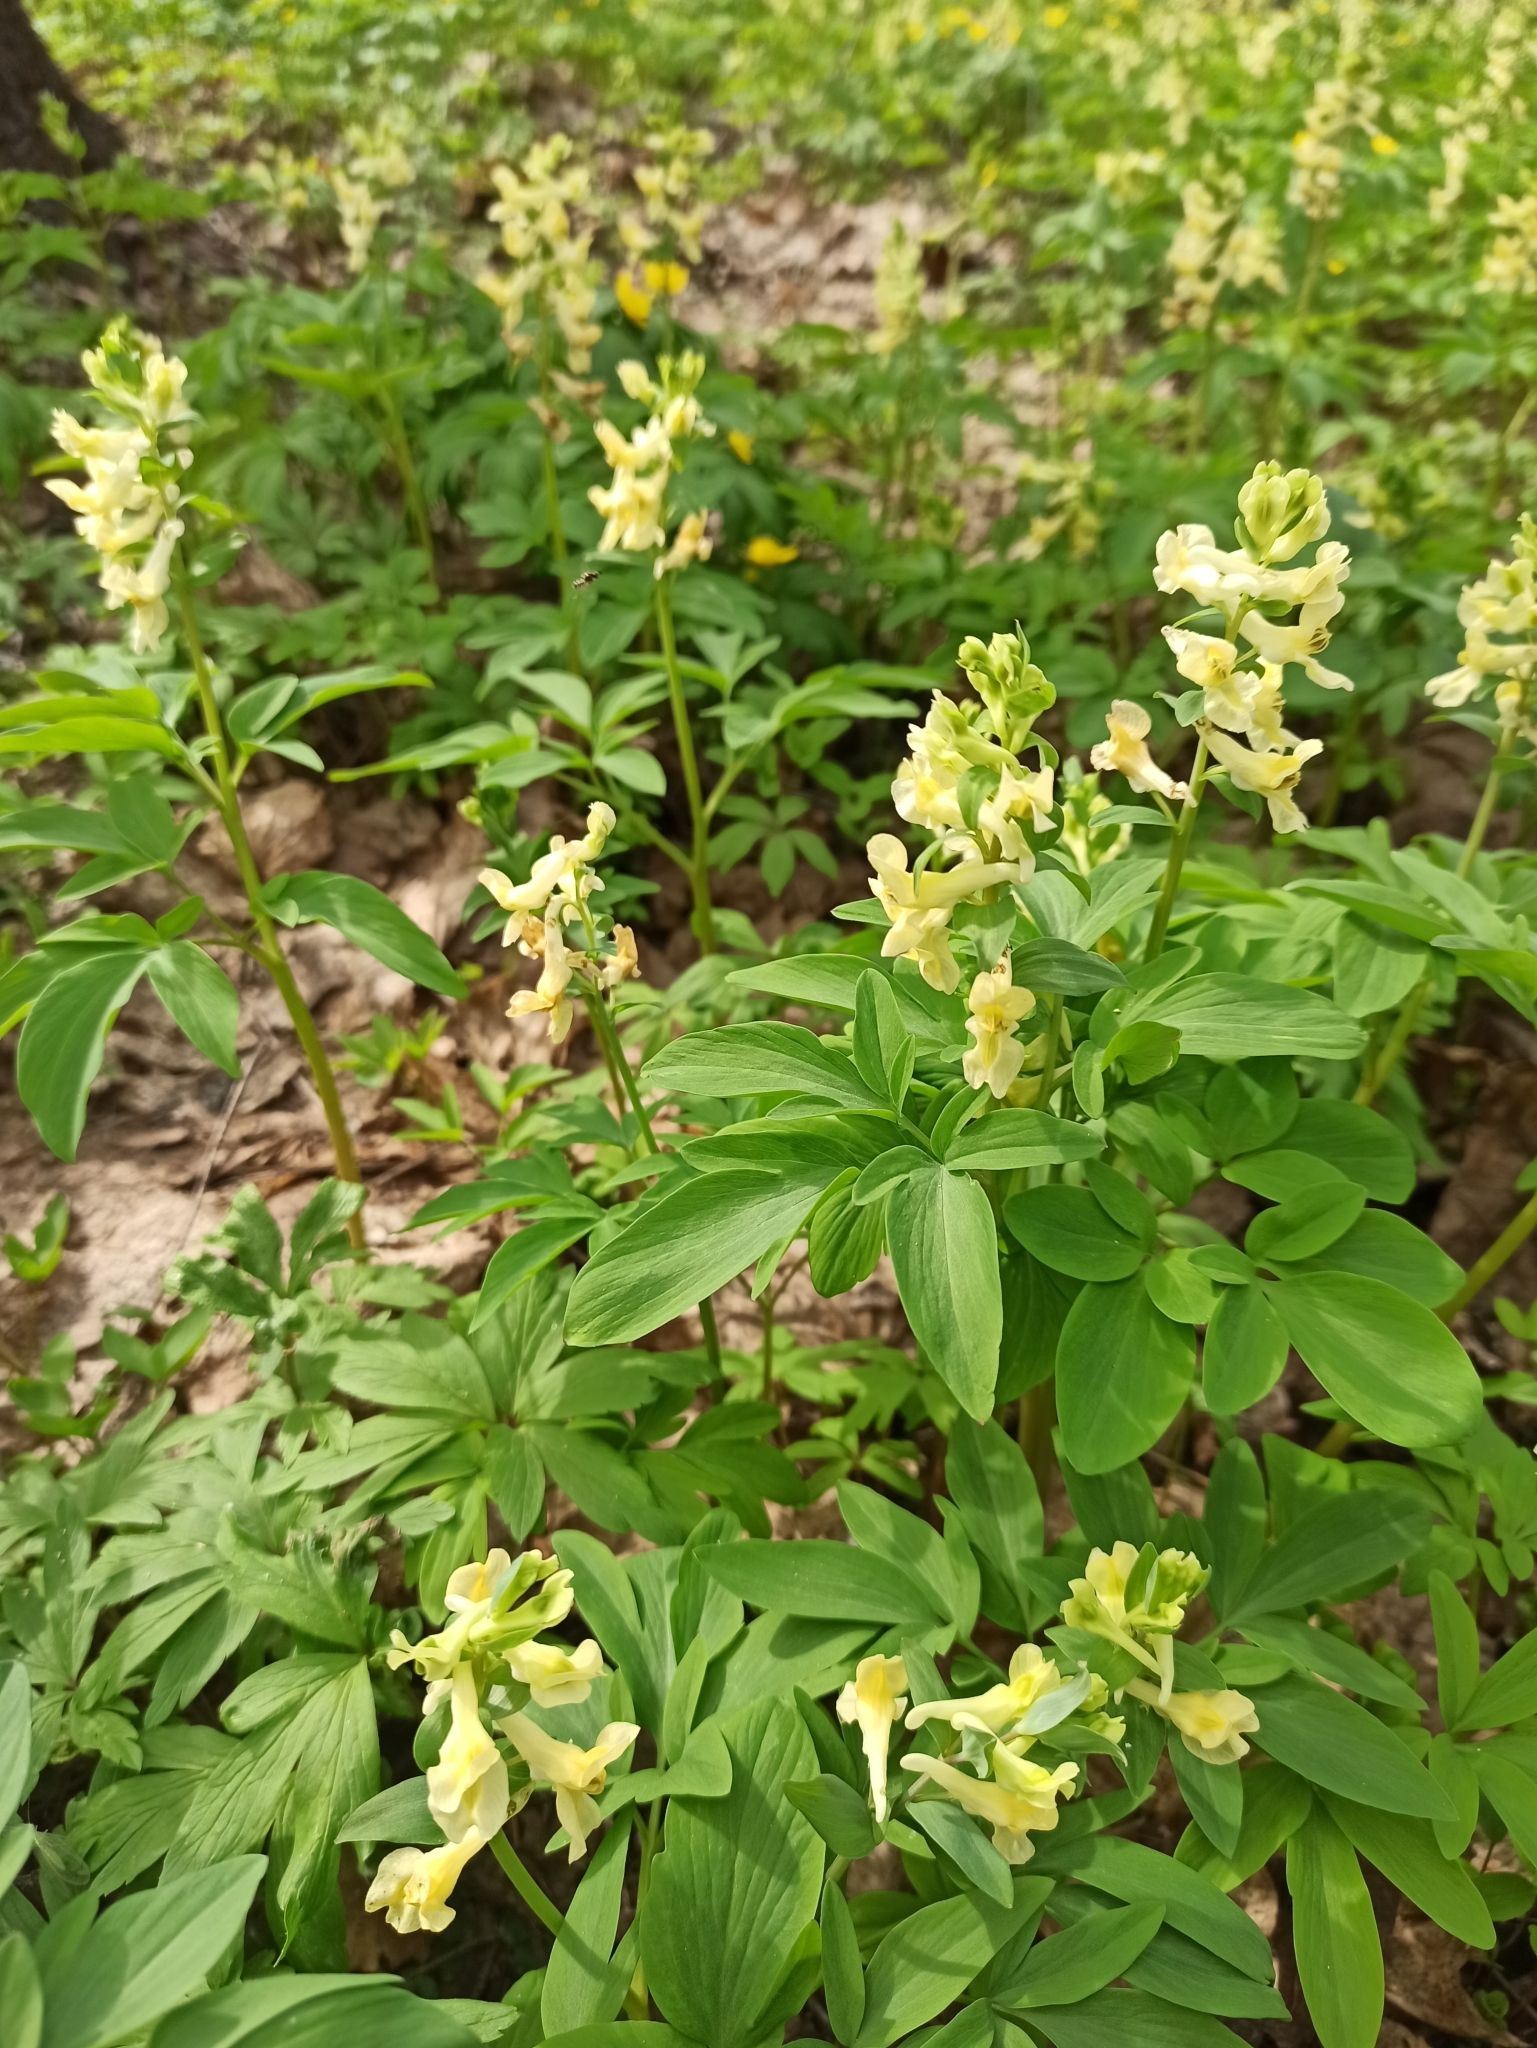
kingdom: Plantae
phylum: Tracheophyta
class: Magnoliopsida
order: Ranunculales
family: Papaveraceae
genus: Corydalis
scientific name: Corydalis cava
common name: Hollowroot
